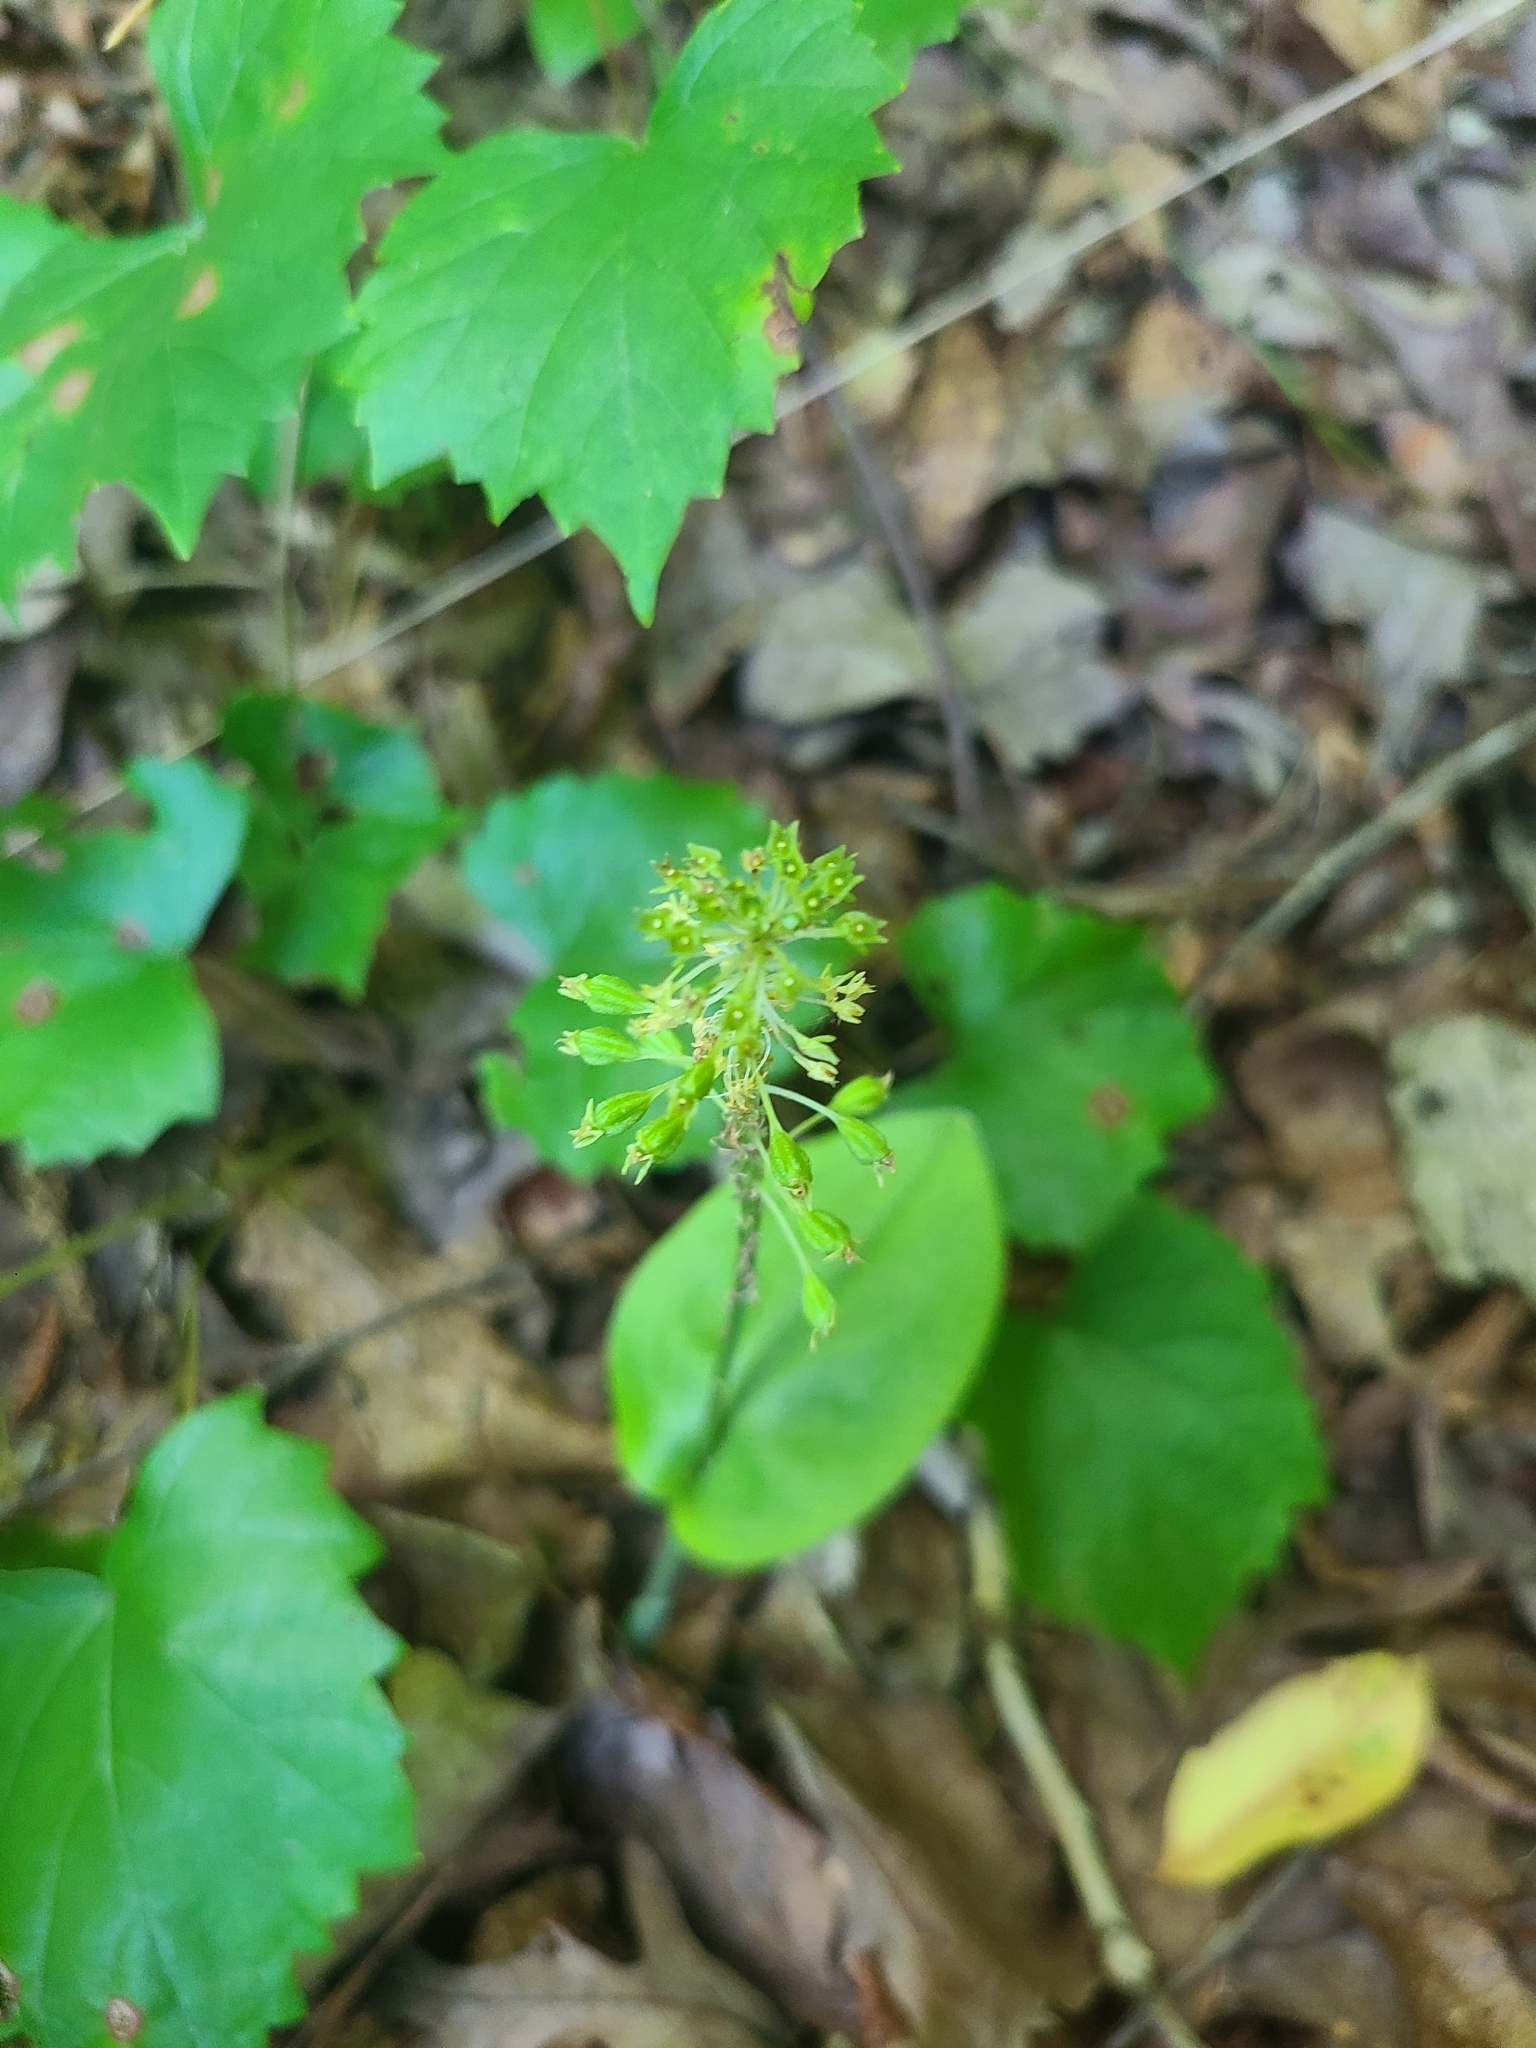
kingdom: Plantae
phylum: Tracheophyta
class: Liliopsida
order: Asparagales
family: Orchidaceae
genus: Malaxis
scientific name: Malaxis unifolia
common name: Green adder's-mouth
